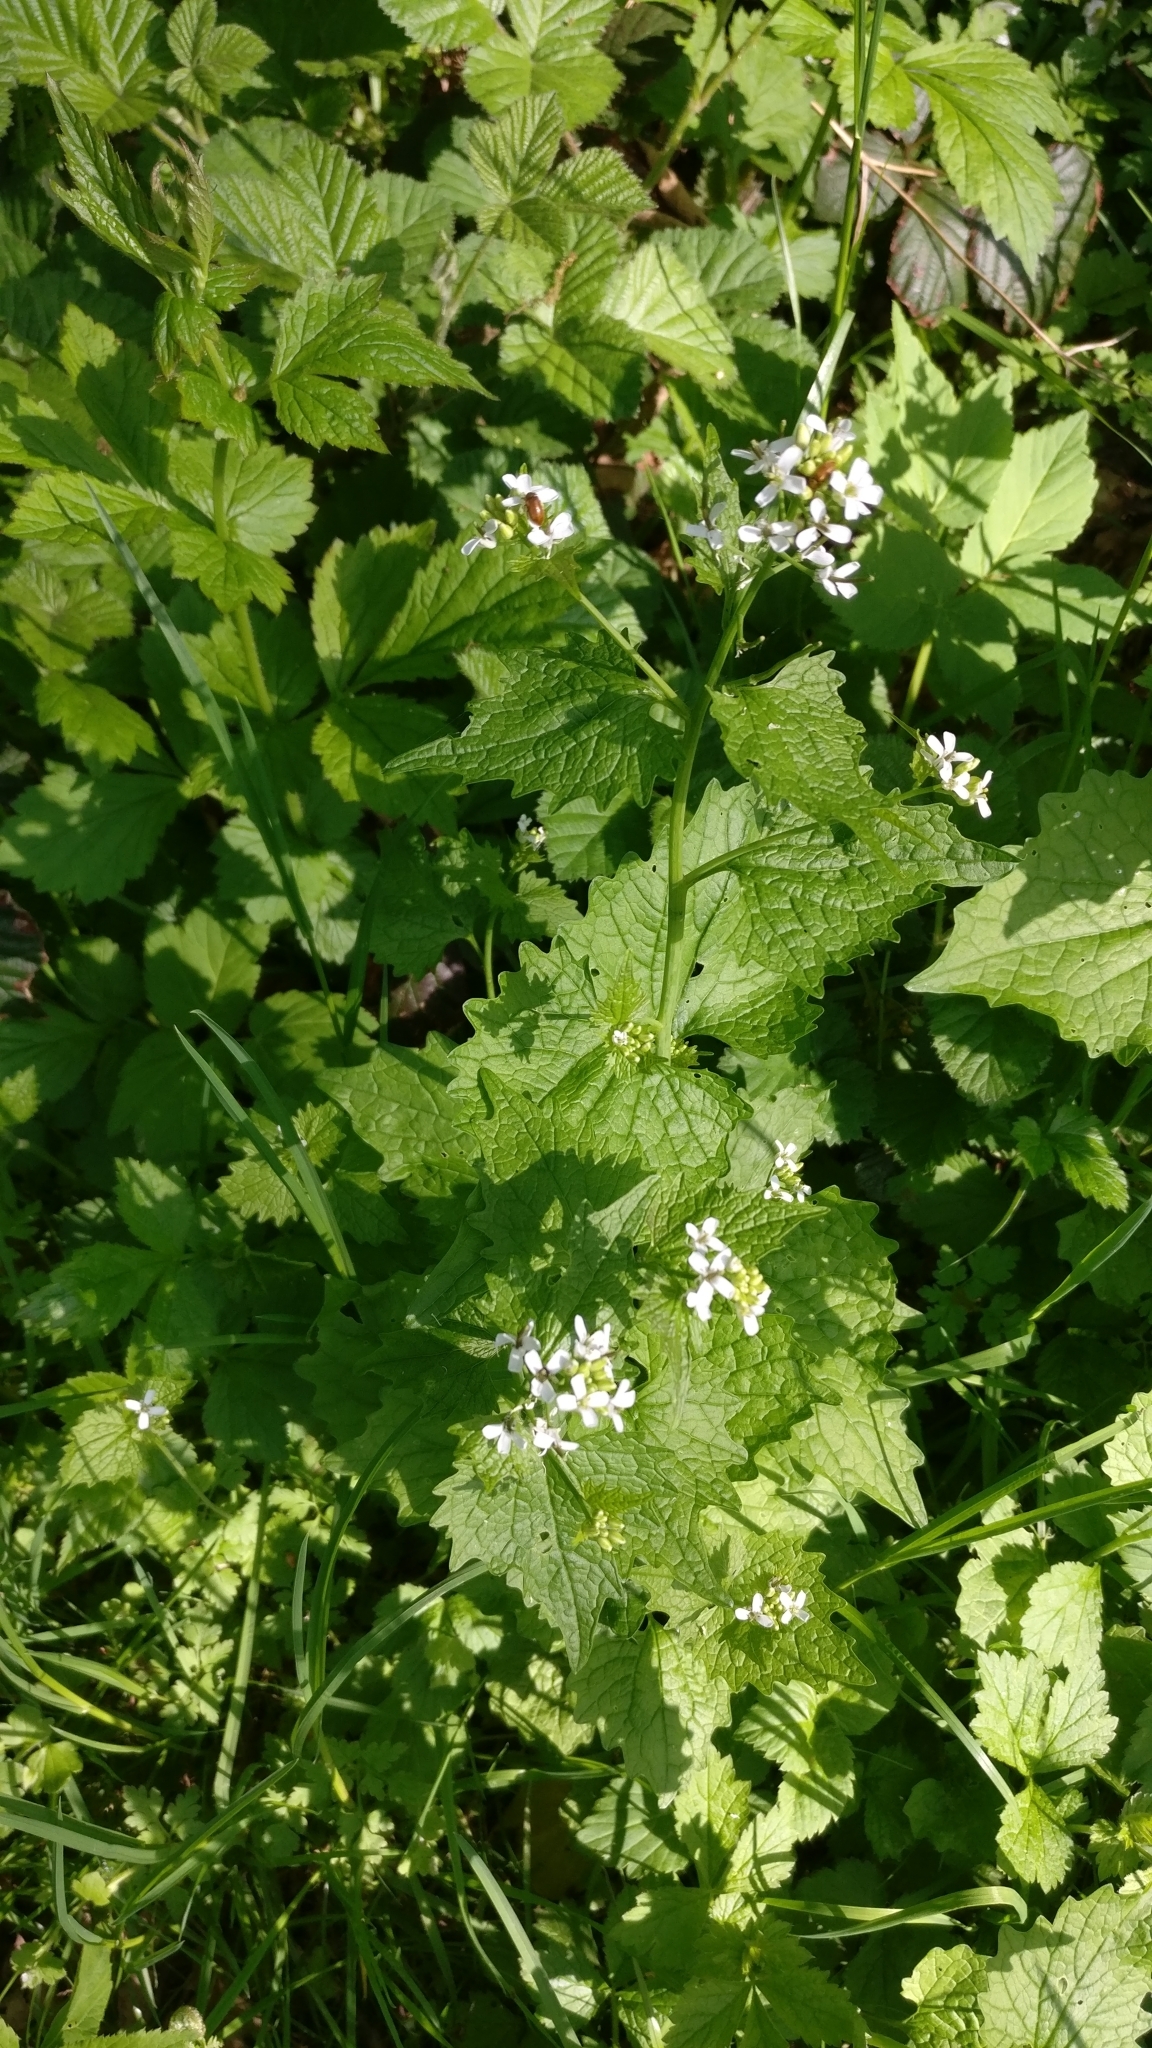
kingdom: Plantae
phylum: Tracheophyta
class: Magnoliopsida
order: Brassicales
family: Brassicaceae
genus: Alliaria
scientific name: Alliaria petiolata
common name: Garlic mustard
